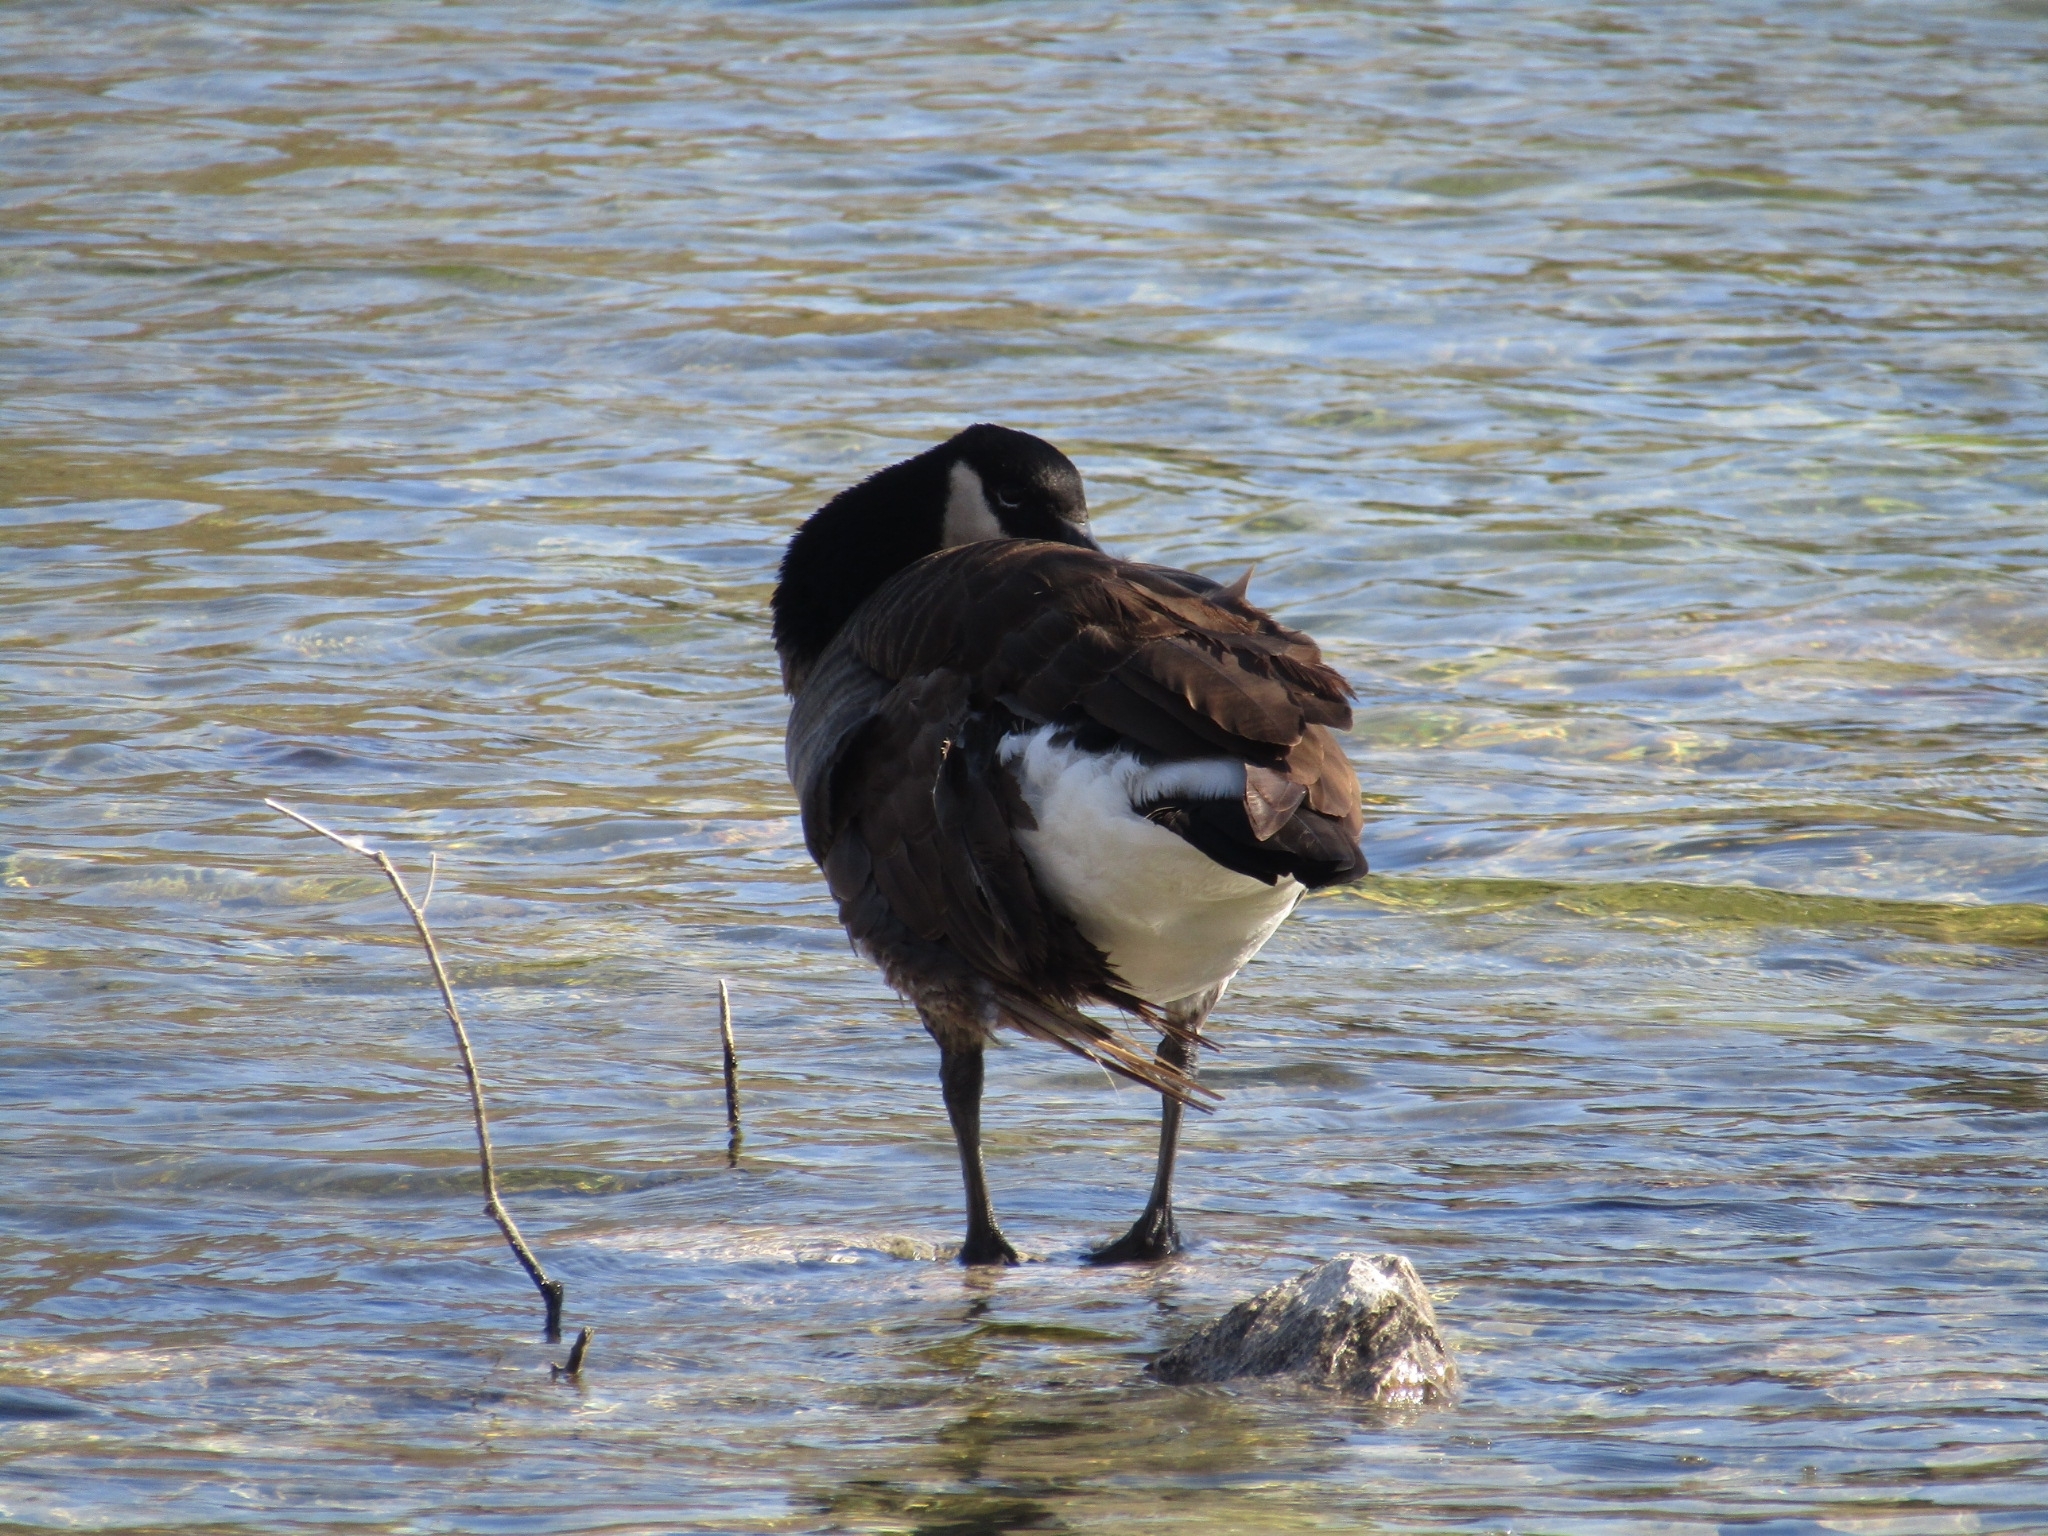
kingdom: Animalia
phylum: Chordata
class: Aves
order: Anseriformes
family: Anatidae
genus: Branta
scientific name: Branta canadensis
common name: Canada goose
